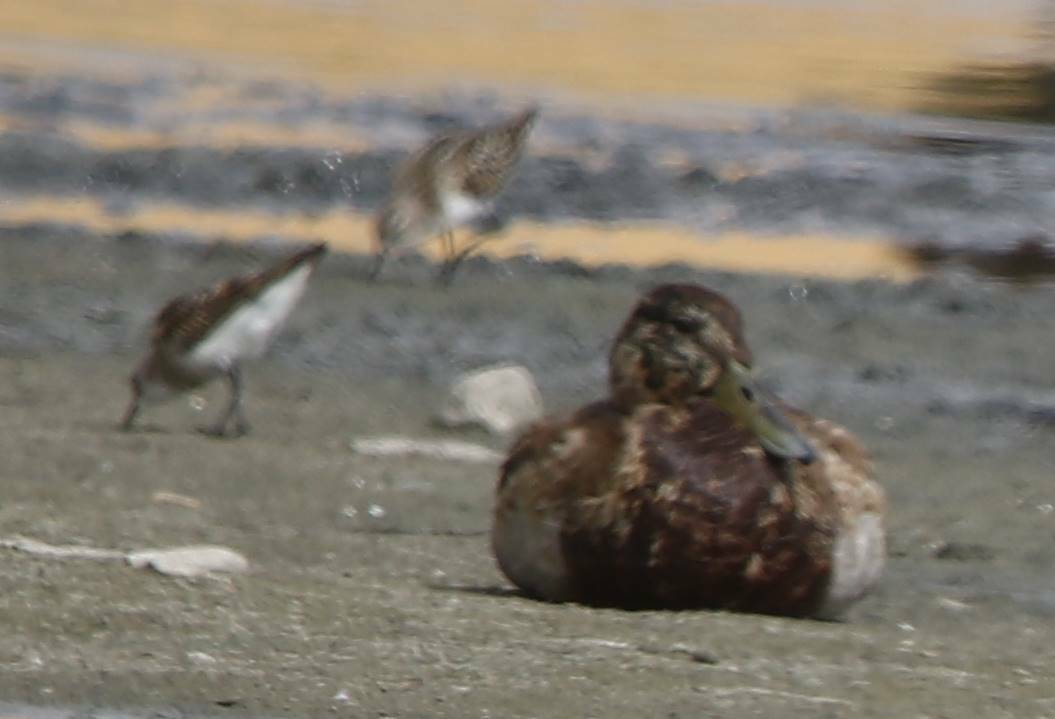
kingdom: Animalia
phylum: Chordata
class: Aves
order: Anseriformes
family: Anatidae
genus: Anas
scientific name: Anas platyrhynchos
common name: Mallard
